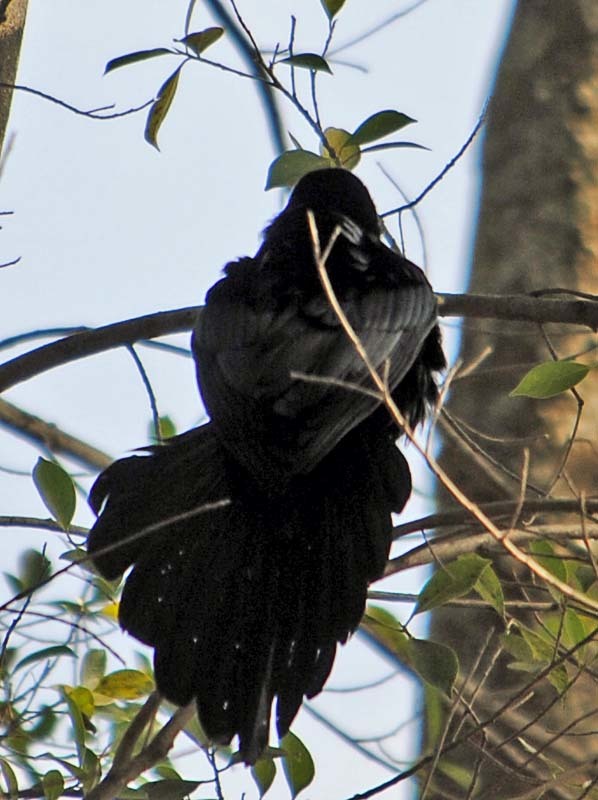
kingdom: Animalia
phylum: Chordata
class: Aves
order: Passeriformes
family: Icteridae
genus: Quiscalus
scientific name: Quiscalus mexicanus
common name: Great-tailed grackle
